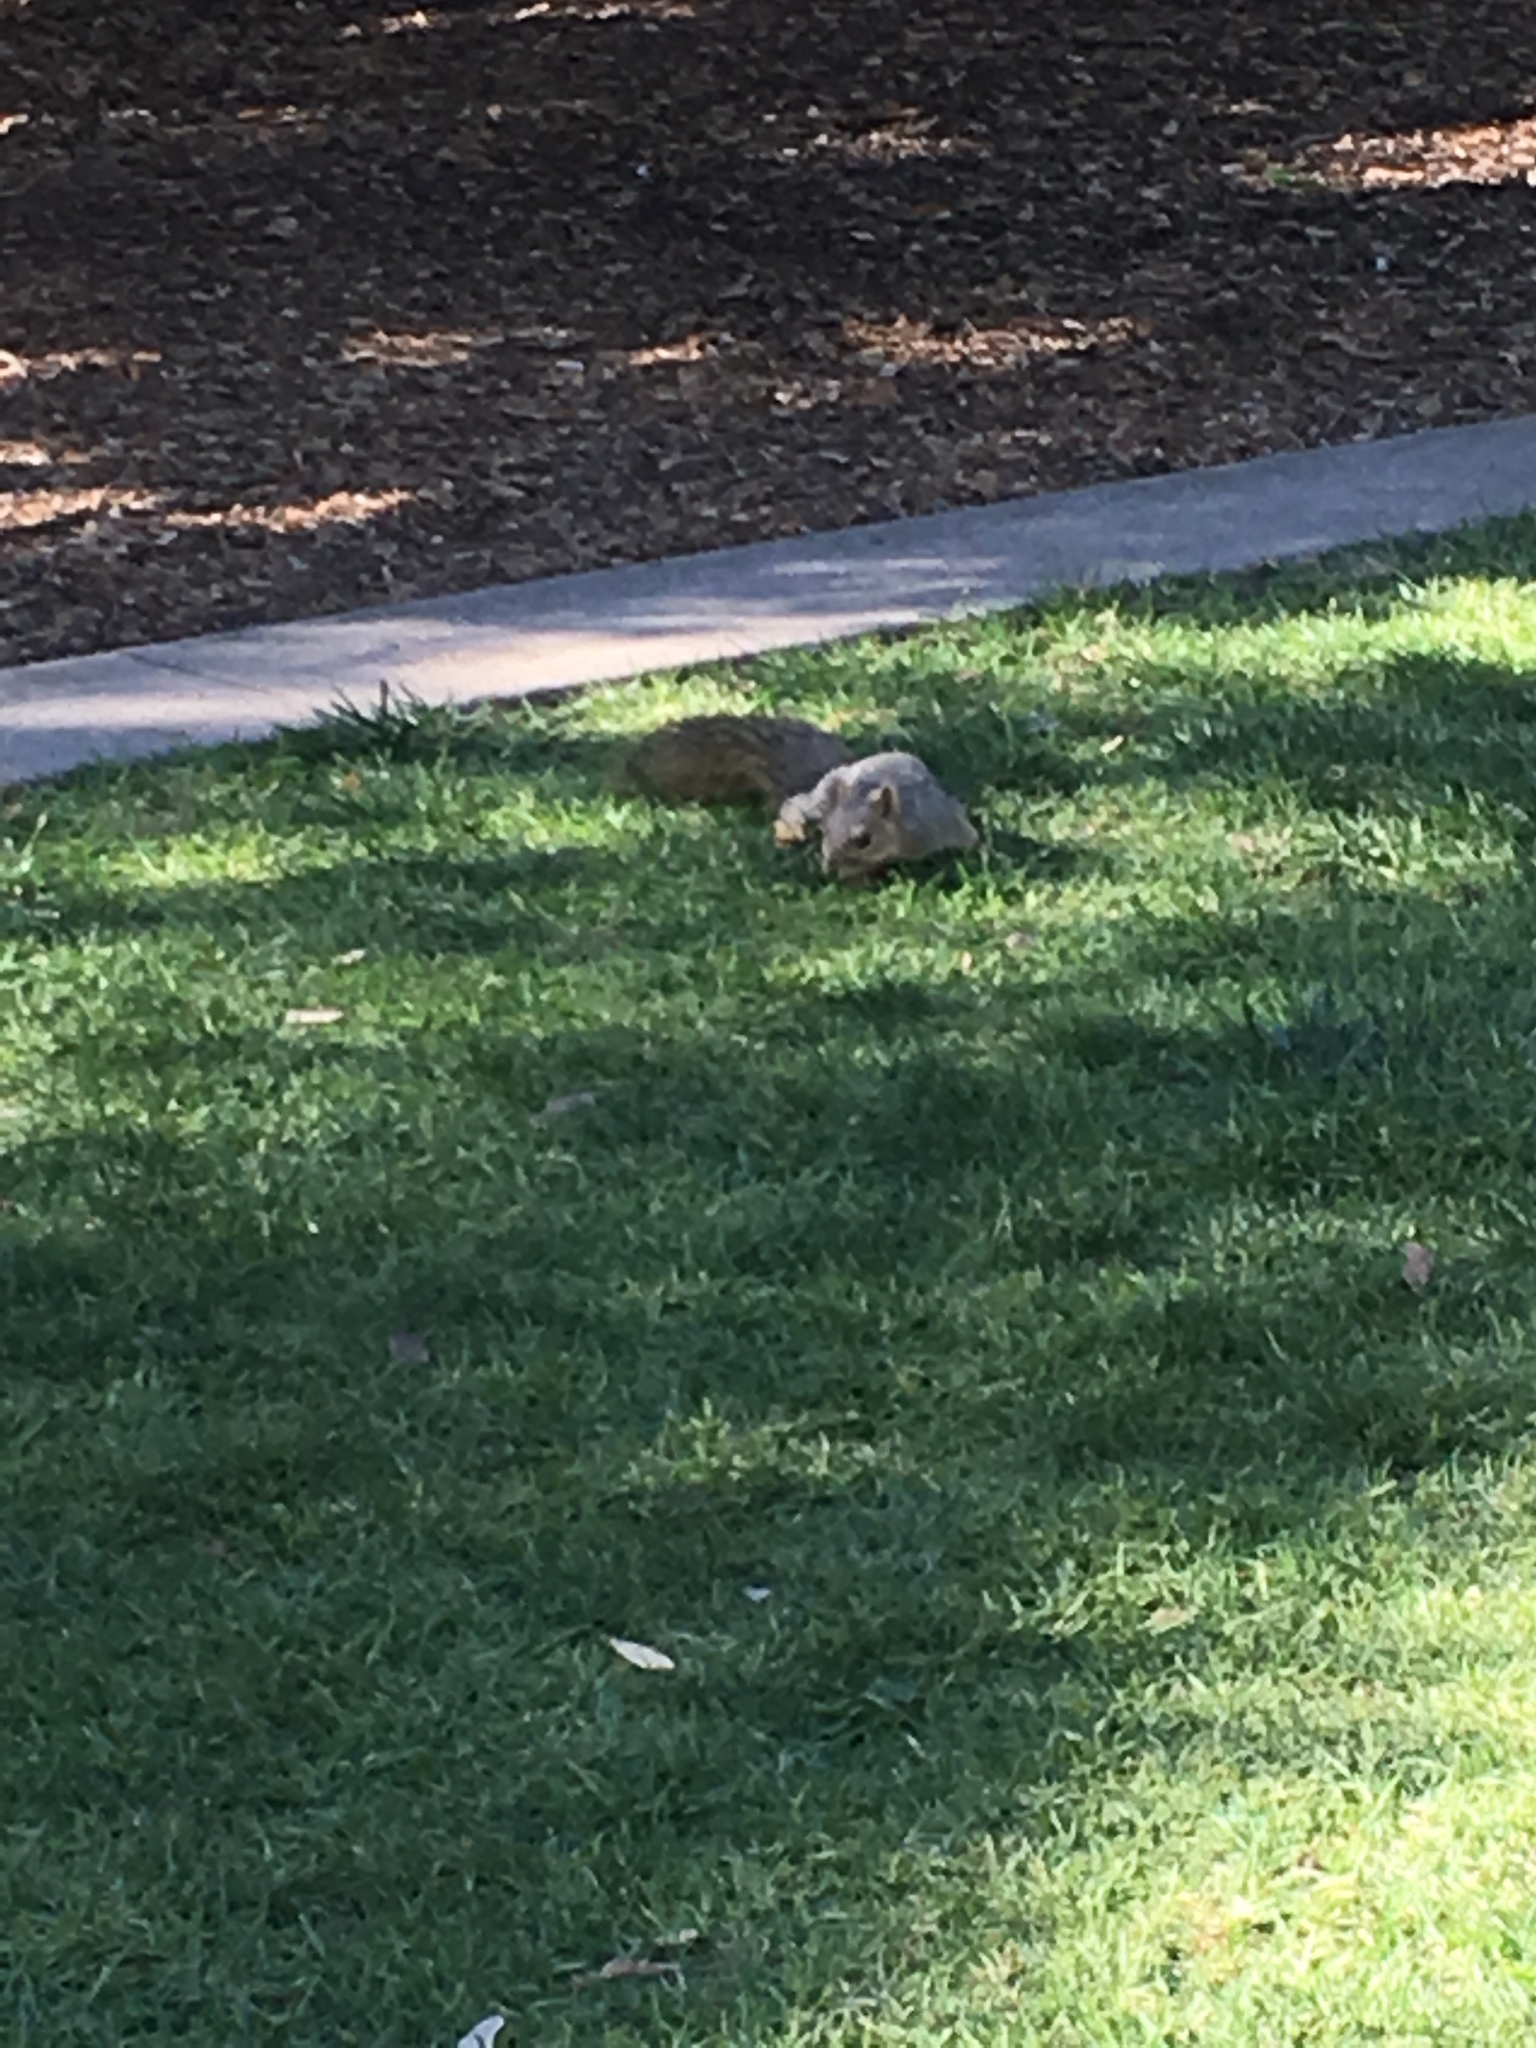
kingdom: Animalia
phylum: Chordata
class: Mammalia
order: Rodentia
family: Sciuridae
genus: Sciurus
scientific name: Sciurus niger
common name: Fox squirrel
